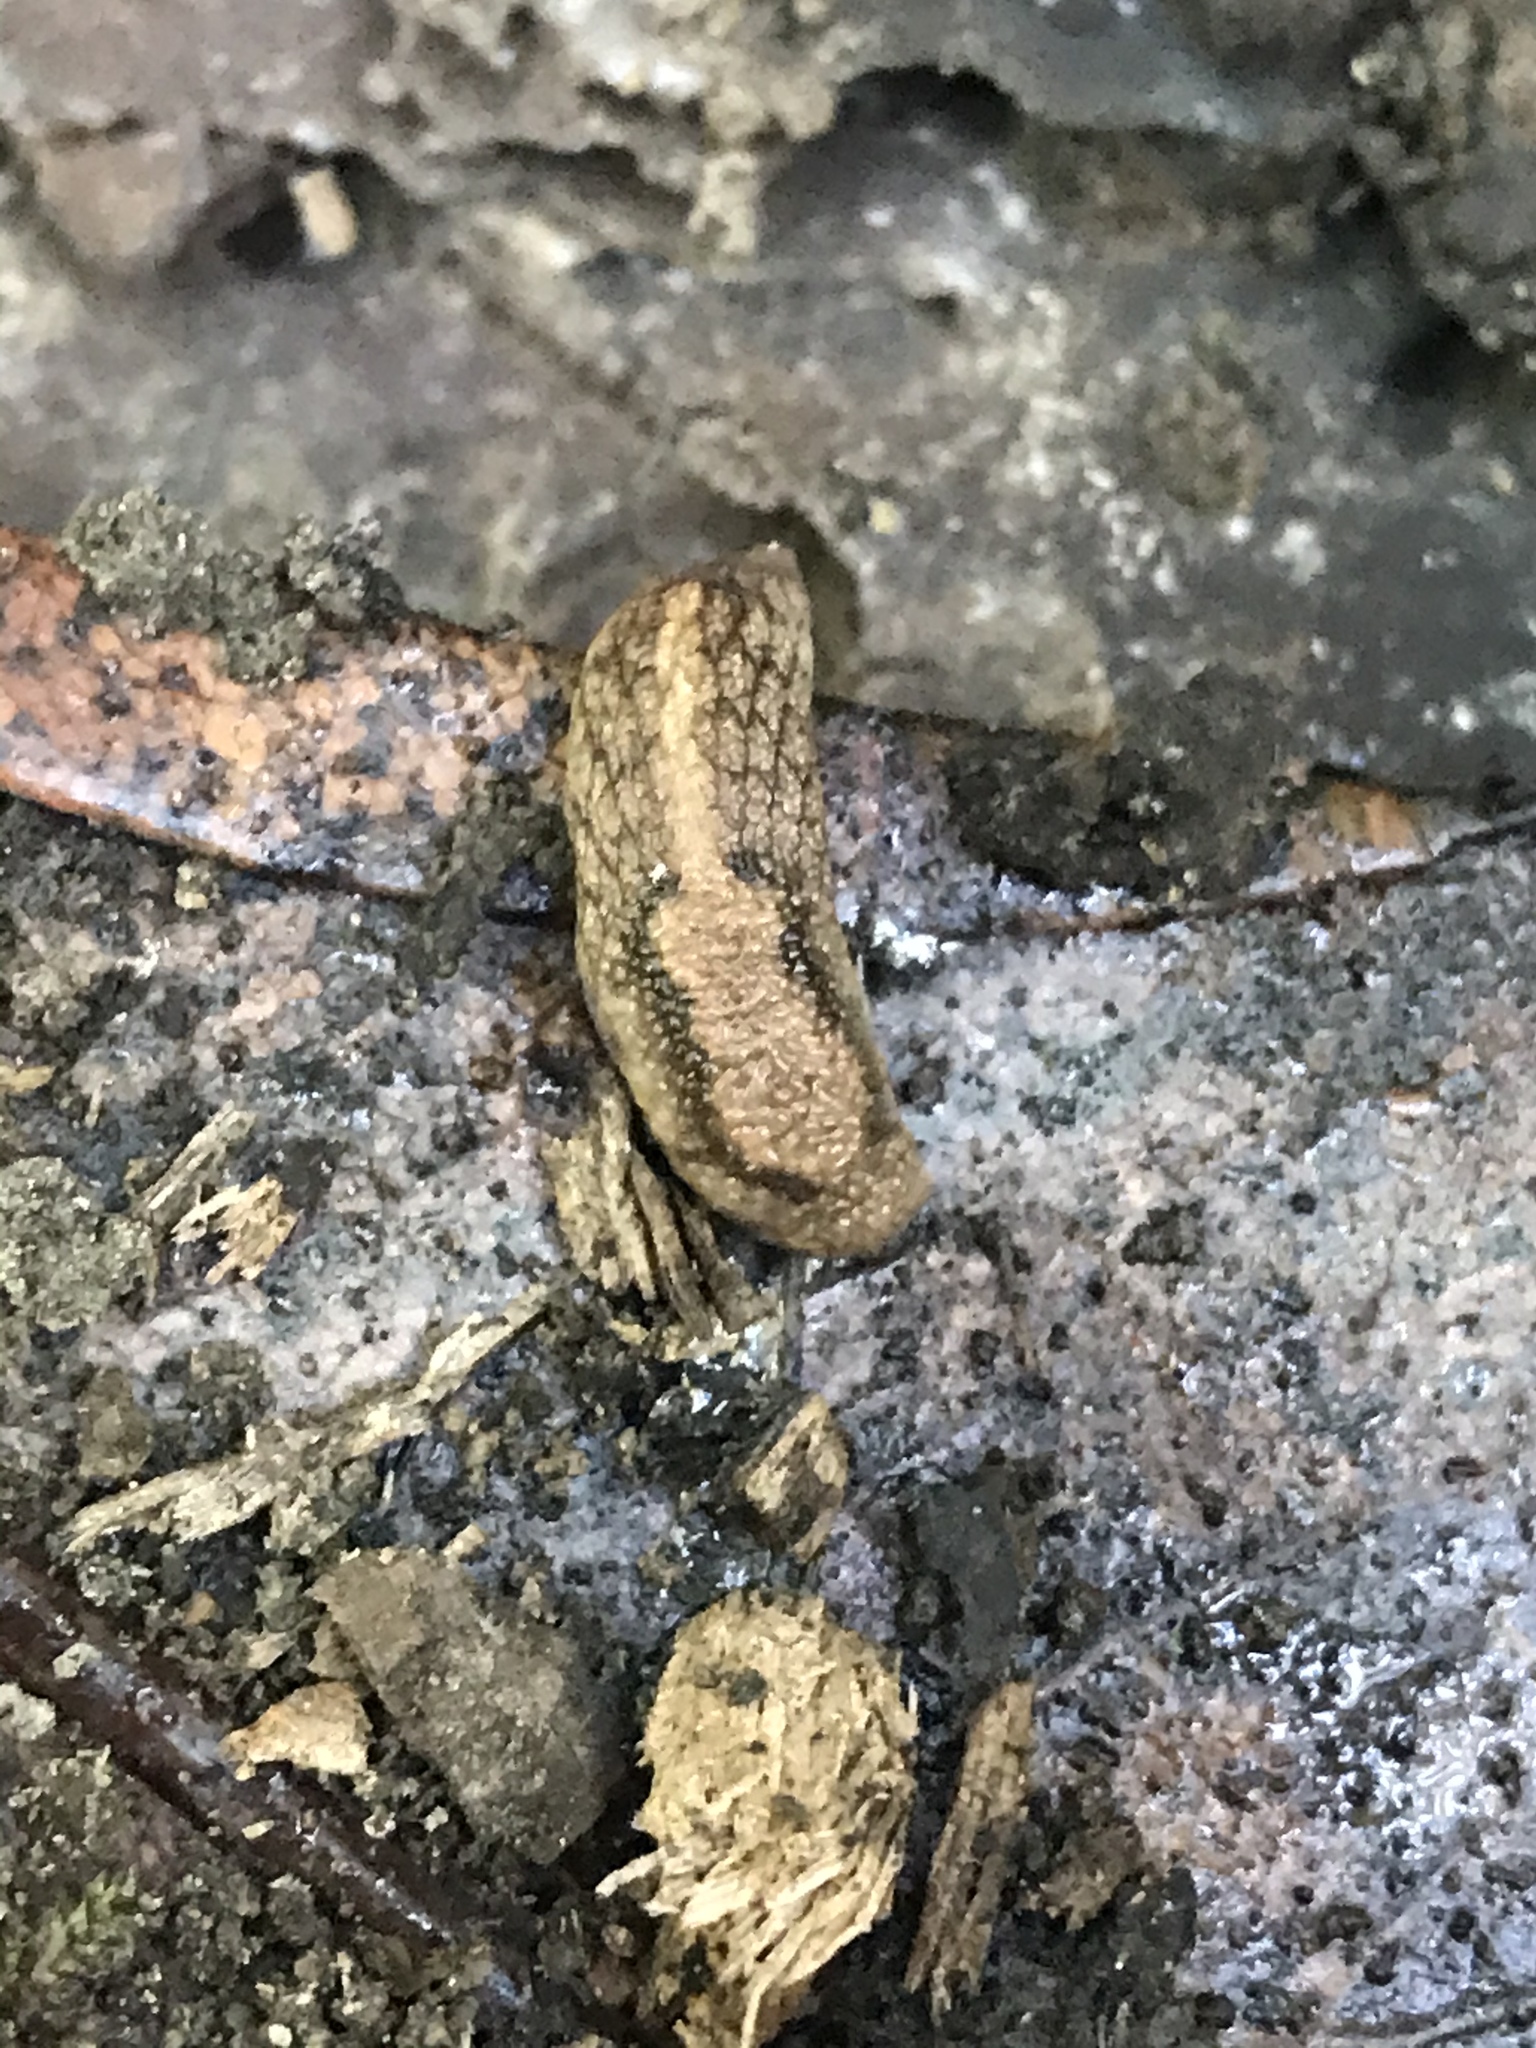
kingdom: Animalia
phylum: Mollusca
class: Gastropoda
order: Stylommatophora
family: Ariolimacidae
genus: Prophysaon
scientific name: Prophysaon andersonii
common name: Reticulate taildropper
